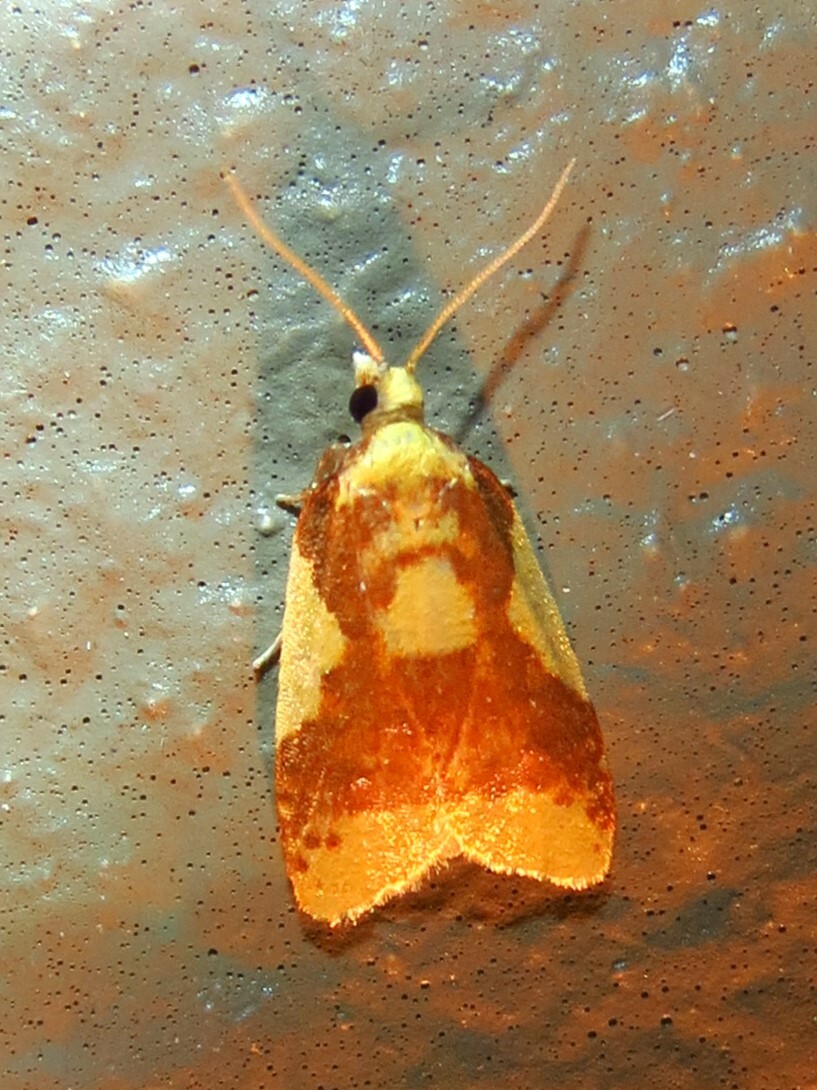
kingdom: Animalia
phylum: Arthropoda
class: Insecta
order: Lepidoptera
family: Tortricidae
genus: Sparganothis
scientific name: Sparganothis pulcherrimana
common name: Beautiful sparganothis
